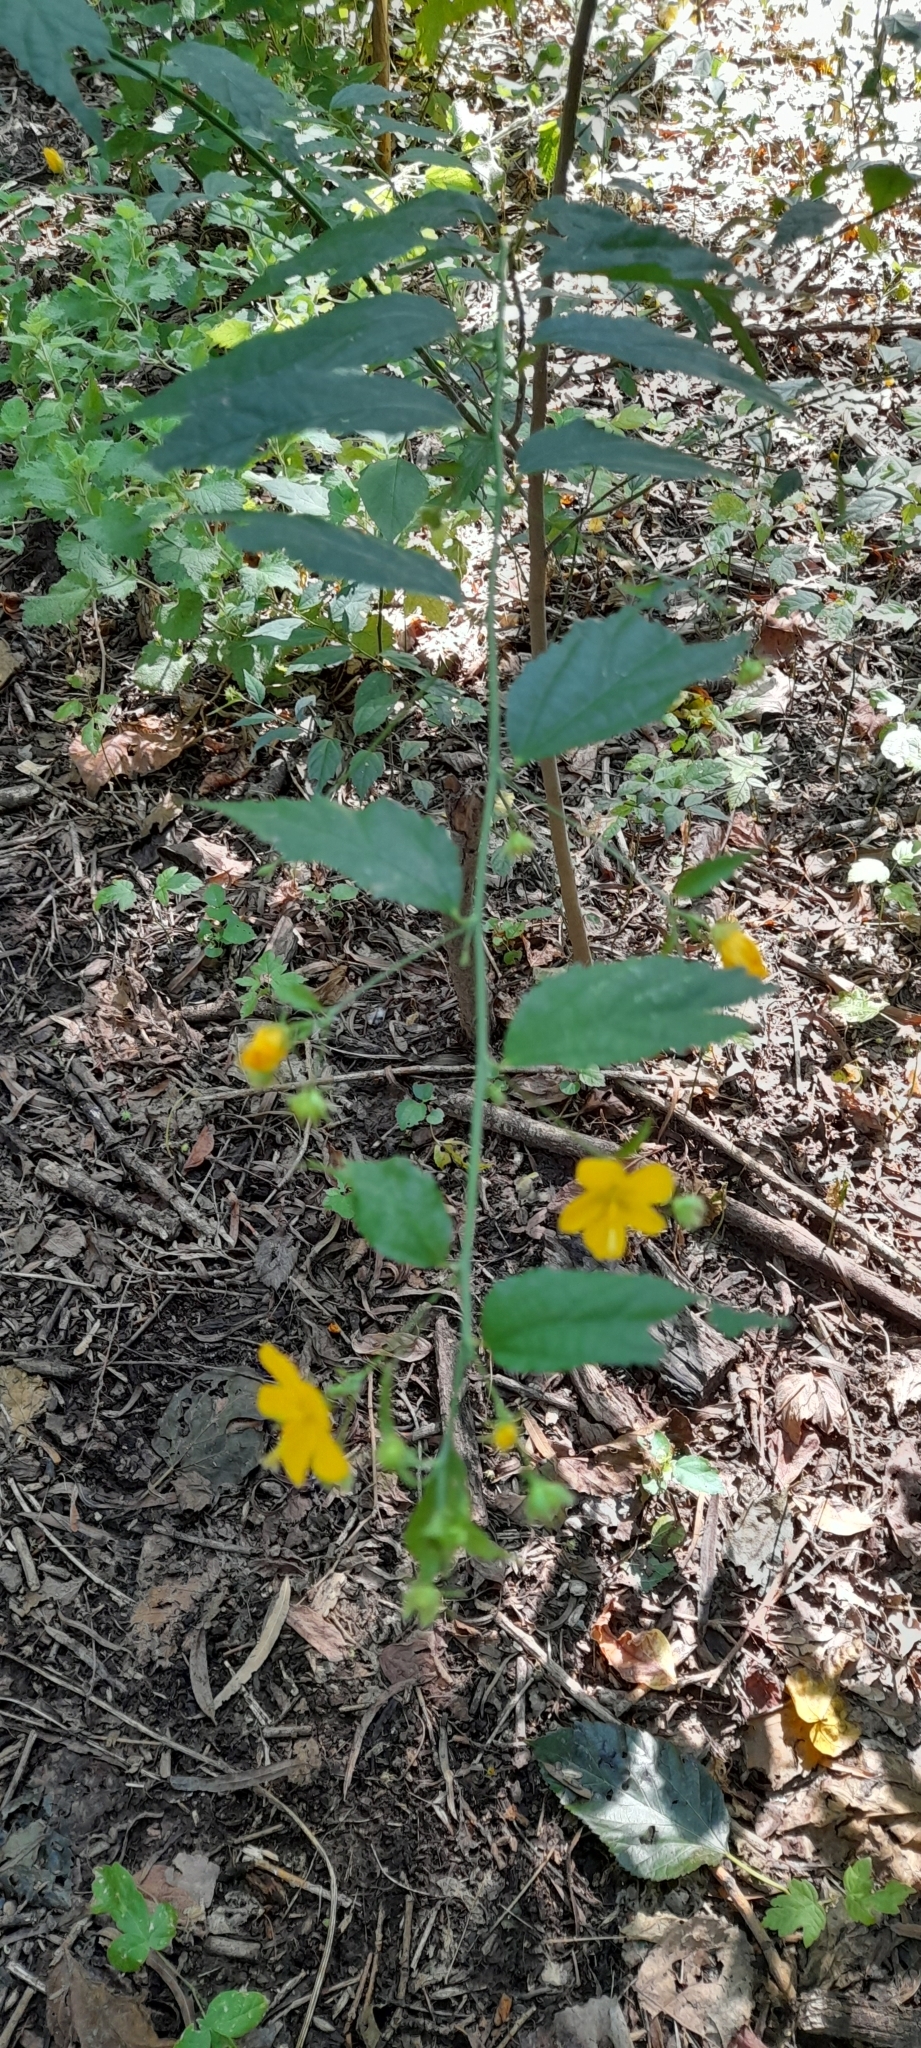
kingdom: Plantae
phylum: Tracheophyta
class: Magnoliopsida
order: Malvales
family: Malvaceae
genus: Pavonia
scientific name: Pavonia sepium
